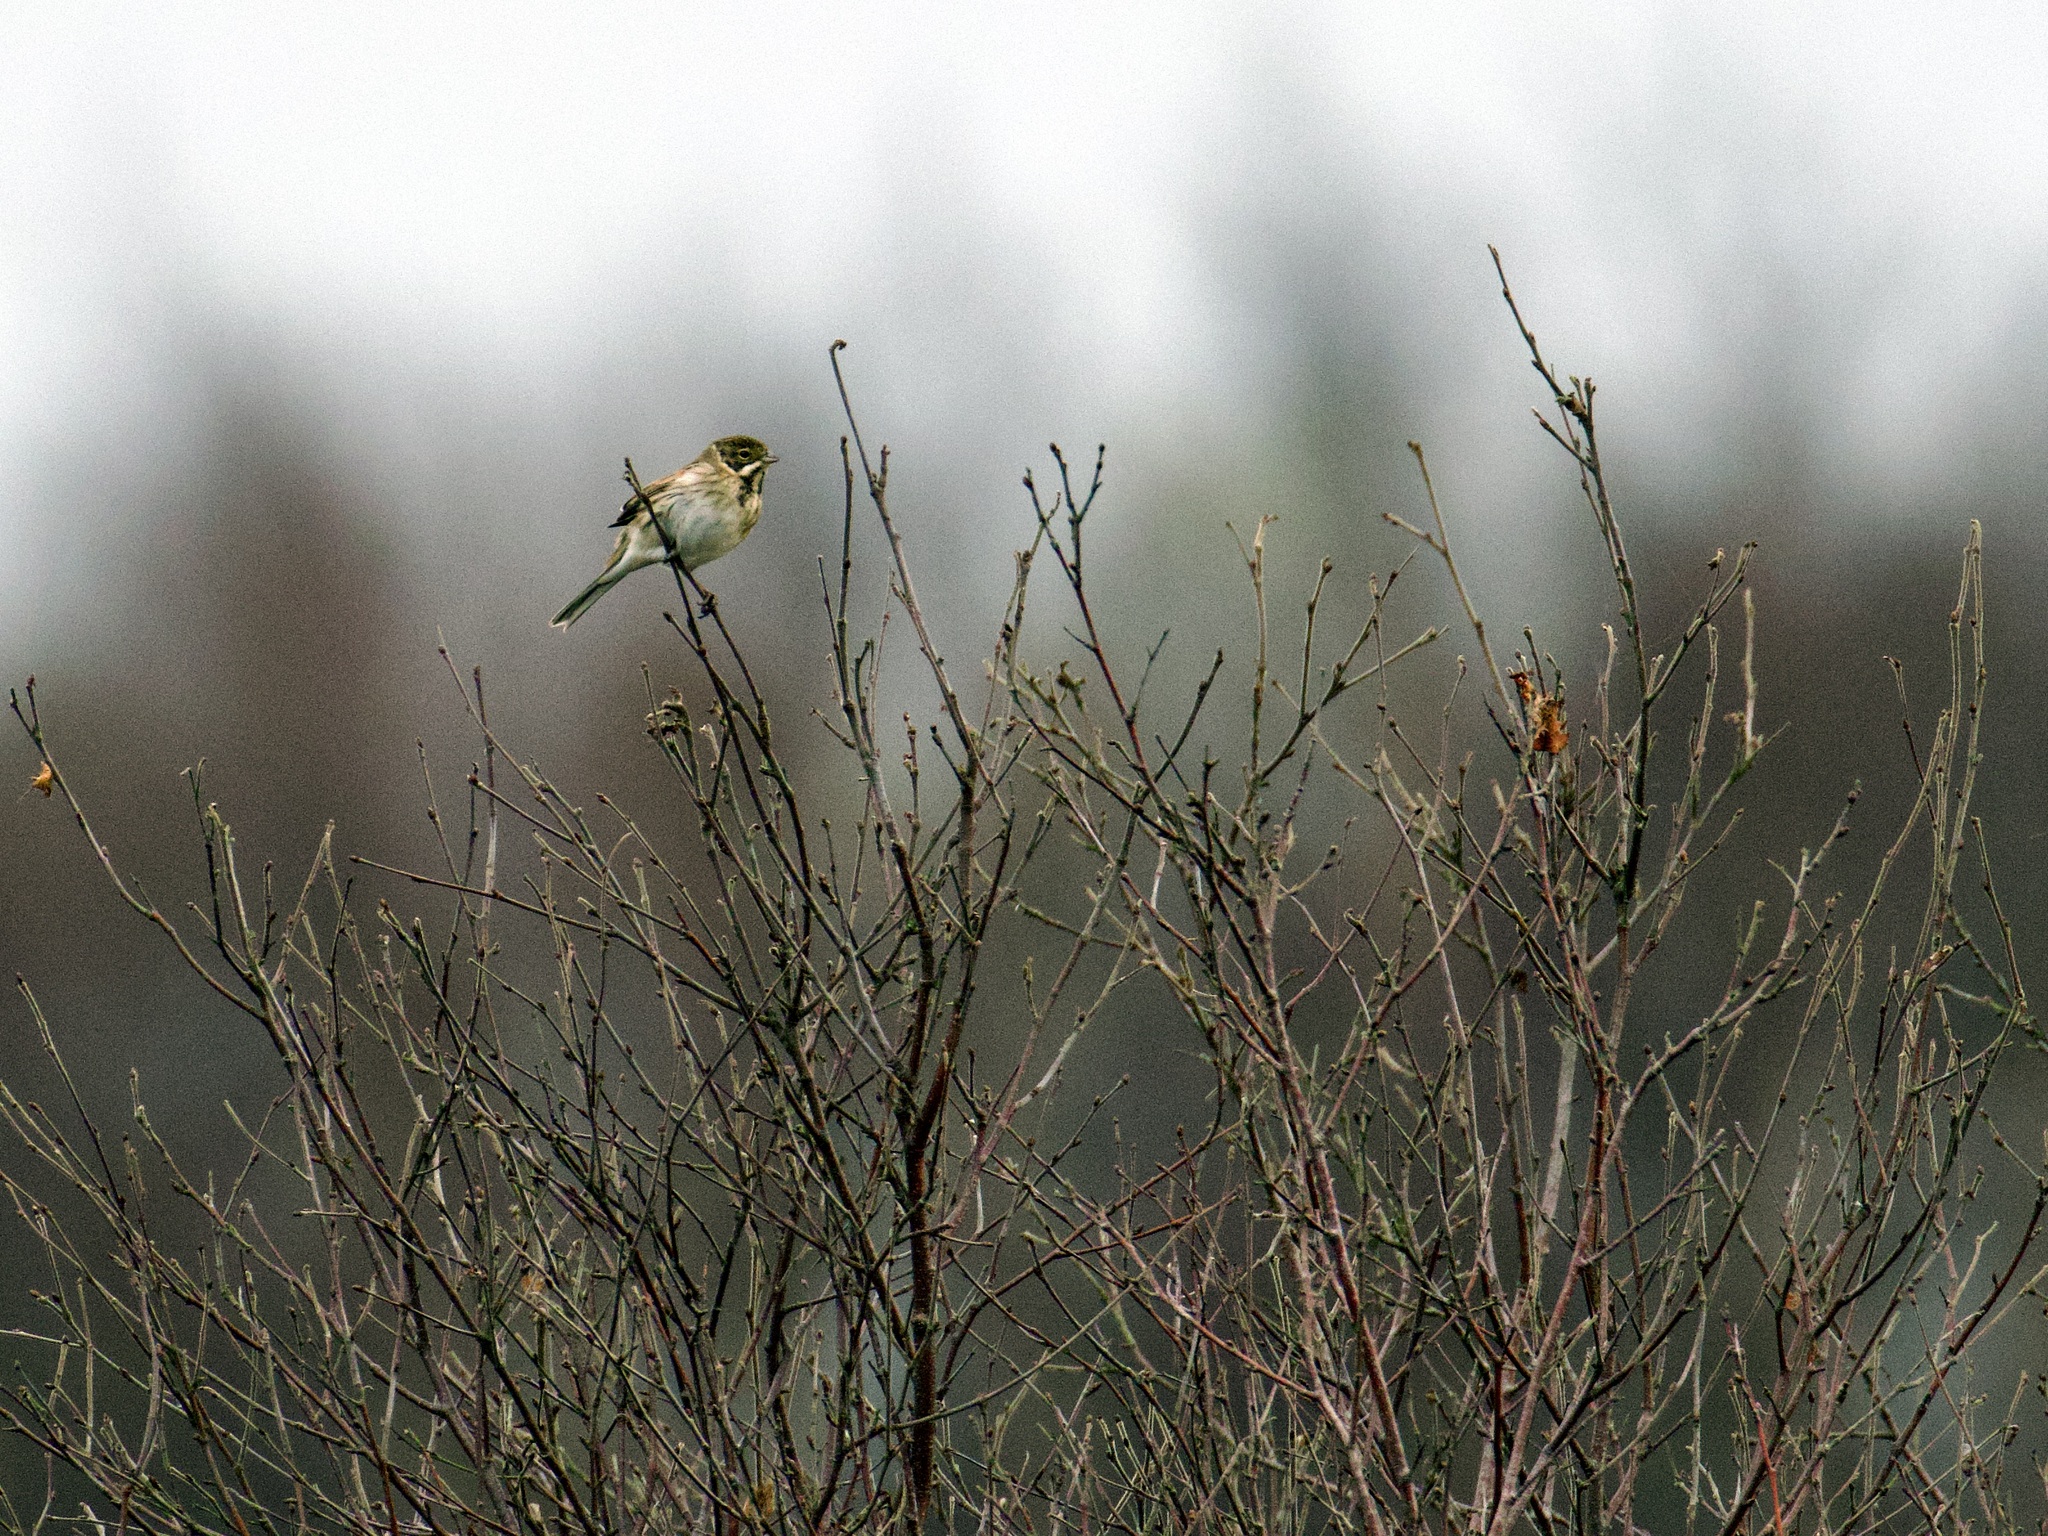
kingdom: Animalia
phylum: Chordata
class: Aves
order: Passeriformes
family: Emberizidae
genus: Emberiza
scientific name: Emberiza schoeniclus
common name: Reed bunting
